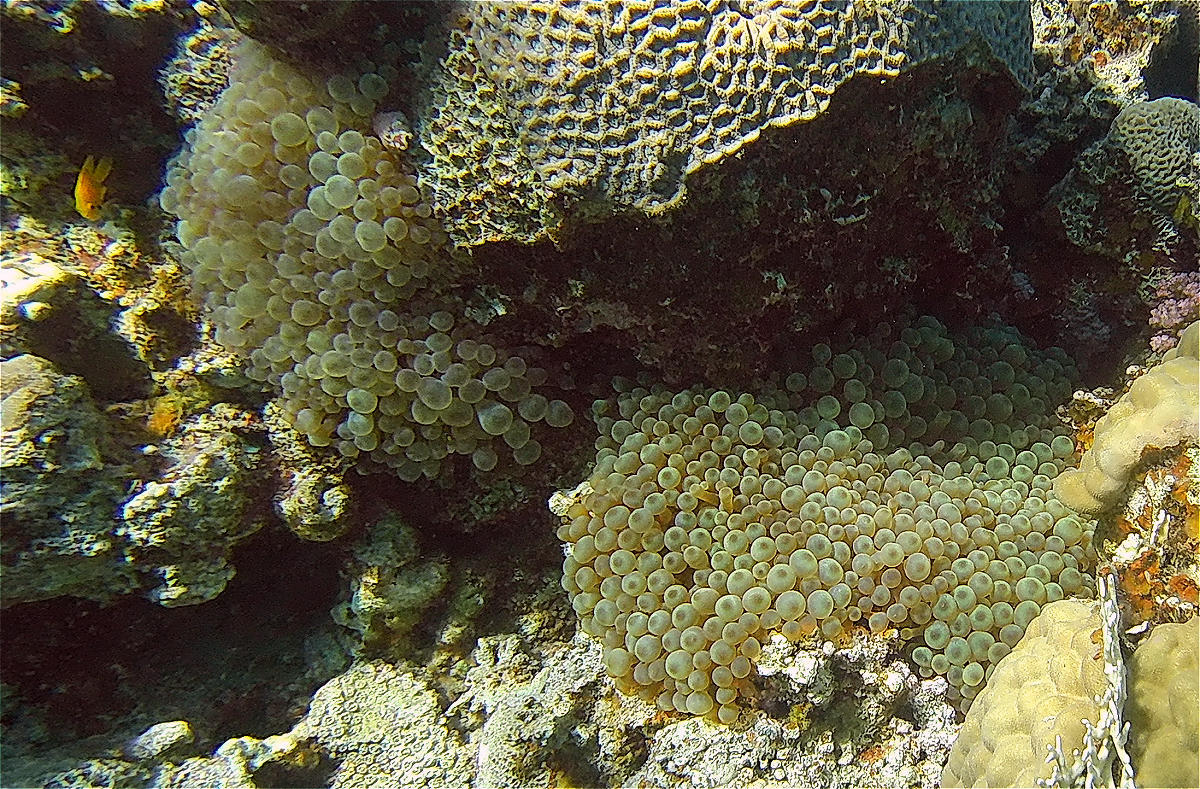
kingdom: Animalia
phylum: Cnidaria
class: Anthozoa
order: Actiniaria
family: Actiniidae
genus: Entacmaea
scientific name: Entacmaea quadricolor
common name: Bulb tentacle sea anemone
